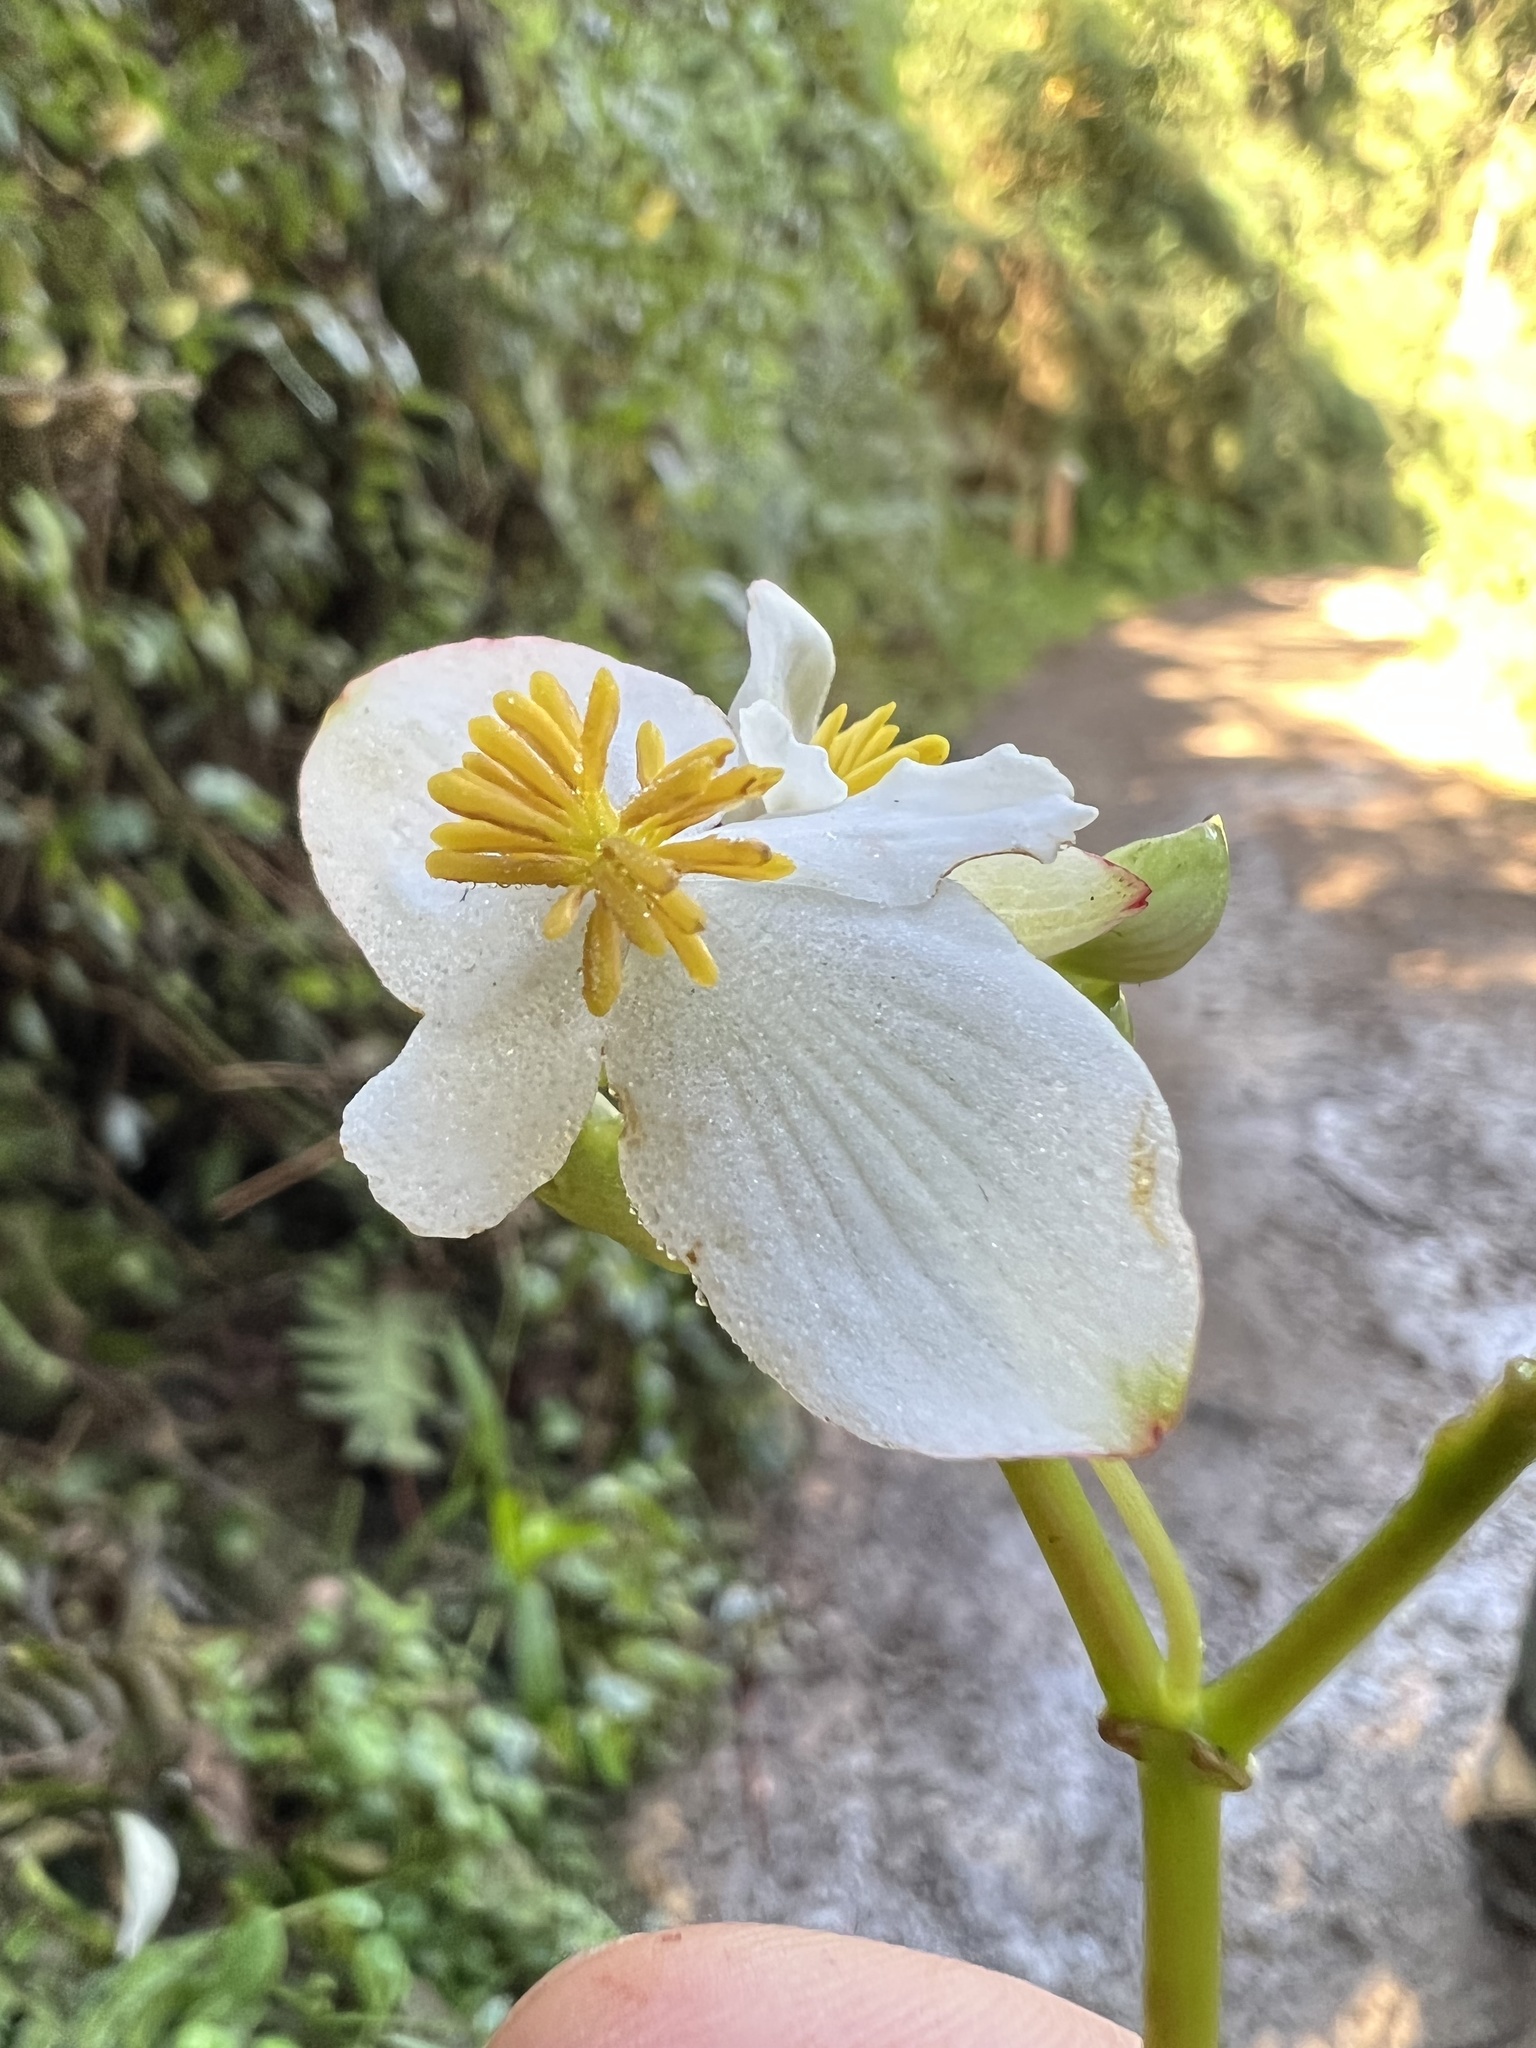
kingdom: Plantae
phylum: Tracheophyta
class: Magnoliopsida
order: Cucurbitales
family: Begoniaceae
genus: Begonia
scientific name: Begonia cornuta
